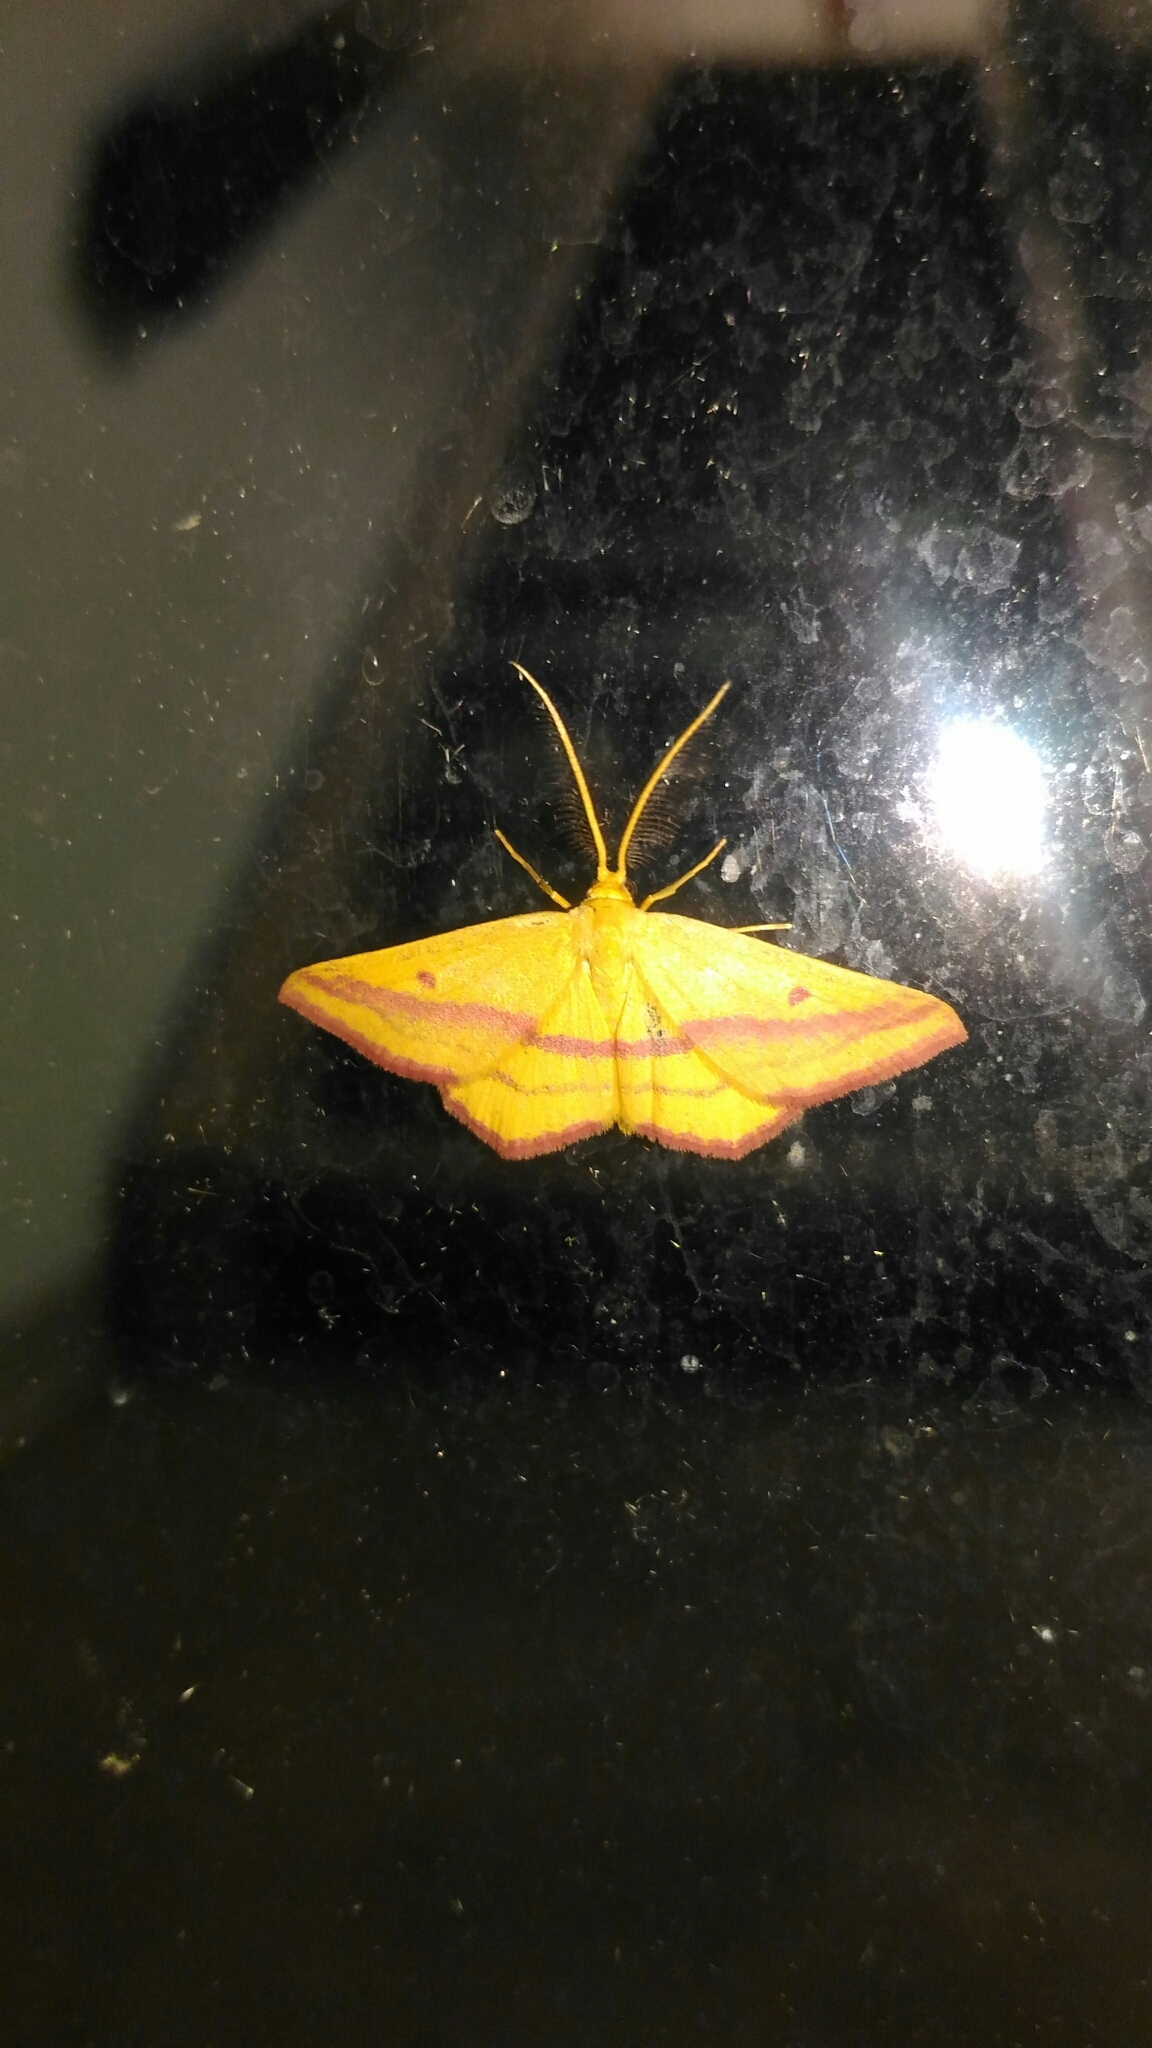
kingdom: Animalia
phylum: Arthropoda
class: Insecta
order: Lepidoptera
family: Geometridae
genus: Haematopis
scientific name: Haematopis grataria
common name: Chickweed geometer
